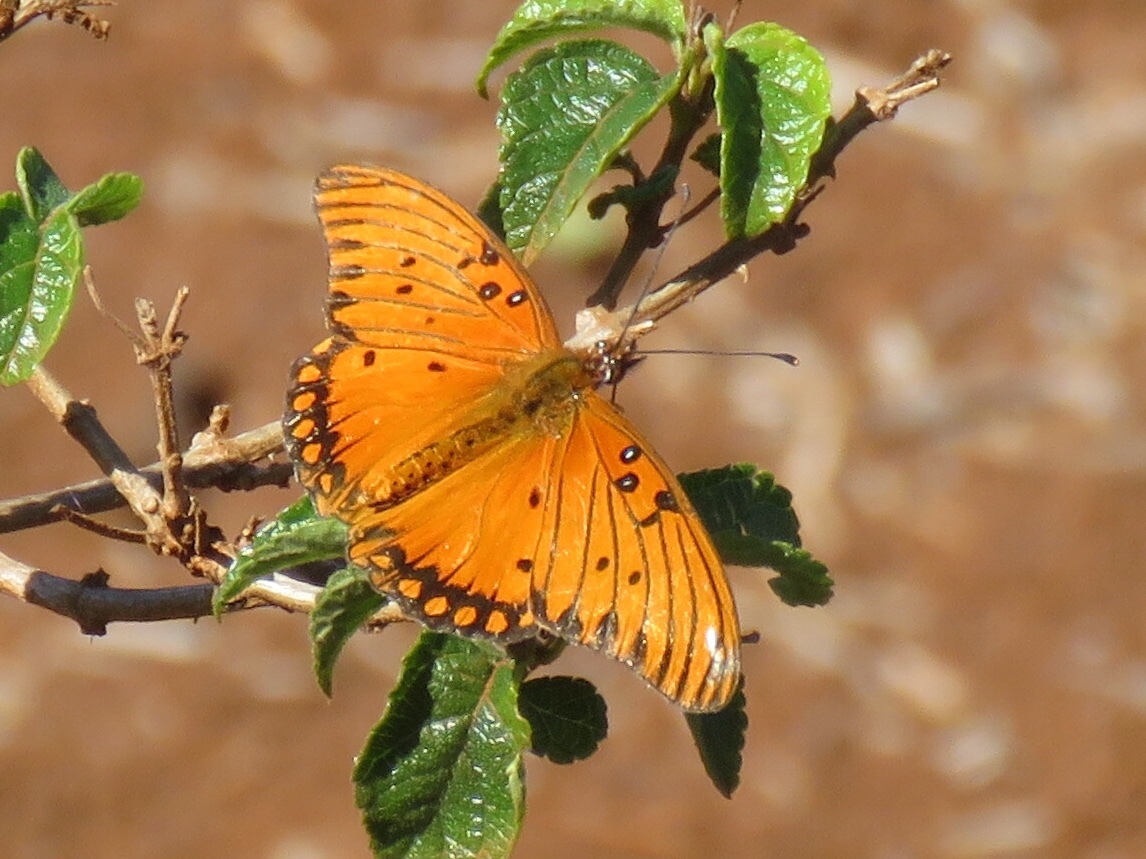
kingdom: Animalia
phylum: Arthropoda
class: Insecta
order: Lepidoptera
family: Nymphalidae
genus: Dione
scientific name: Dione vanillae
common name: Gulf fritillary
